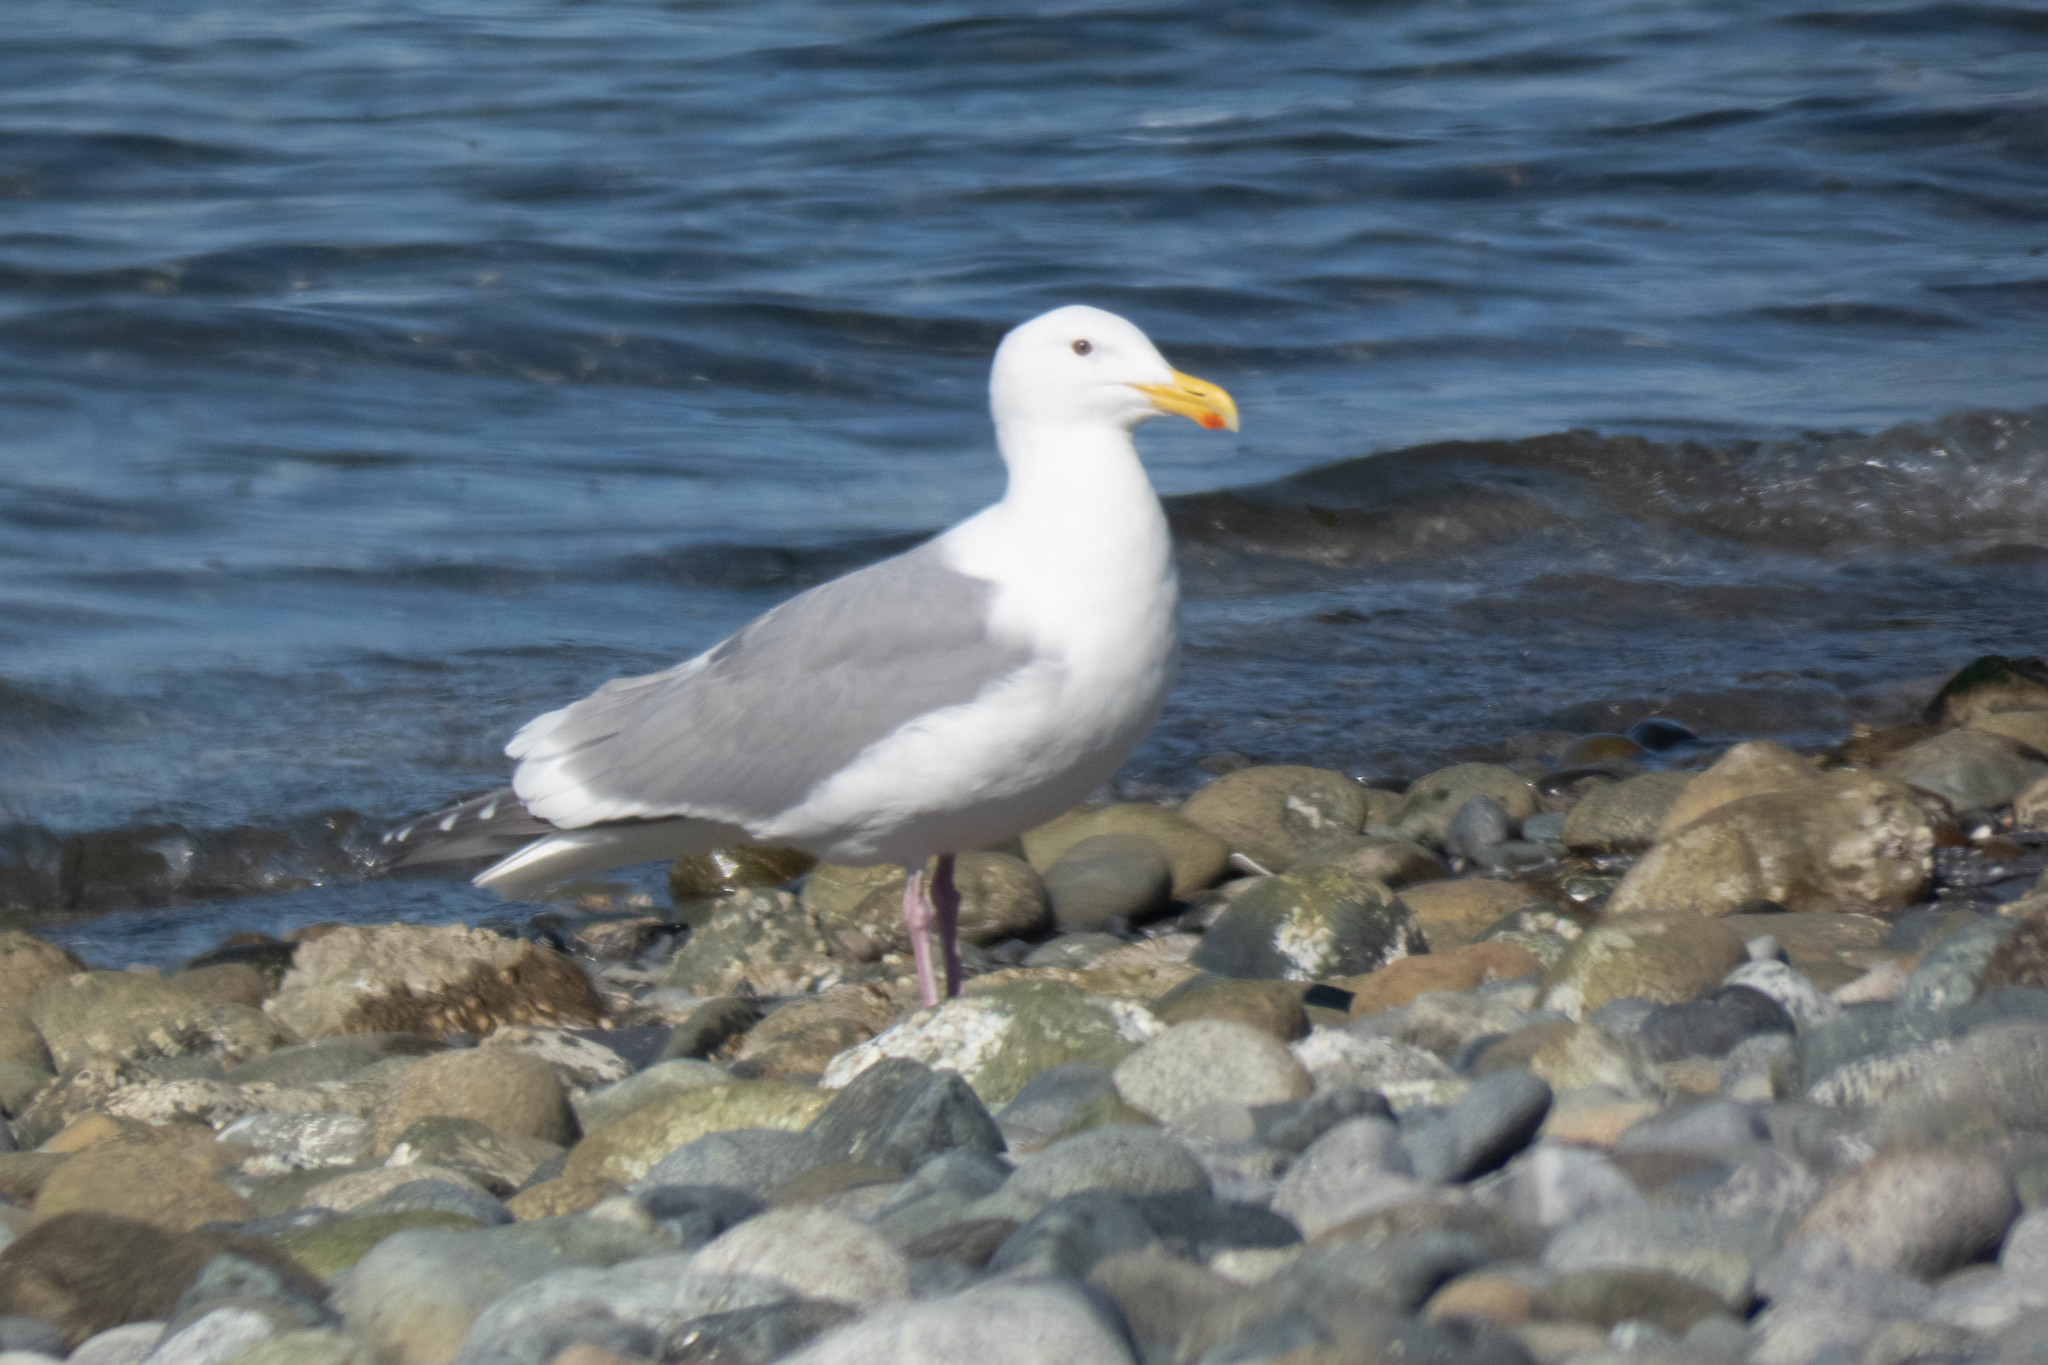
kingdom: Animalia
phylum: Chordata
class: Aves
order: Charadriiformes
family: Laridae
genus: Larus
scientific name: Larus
